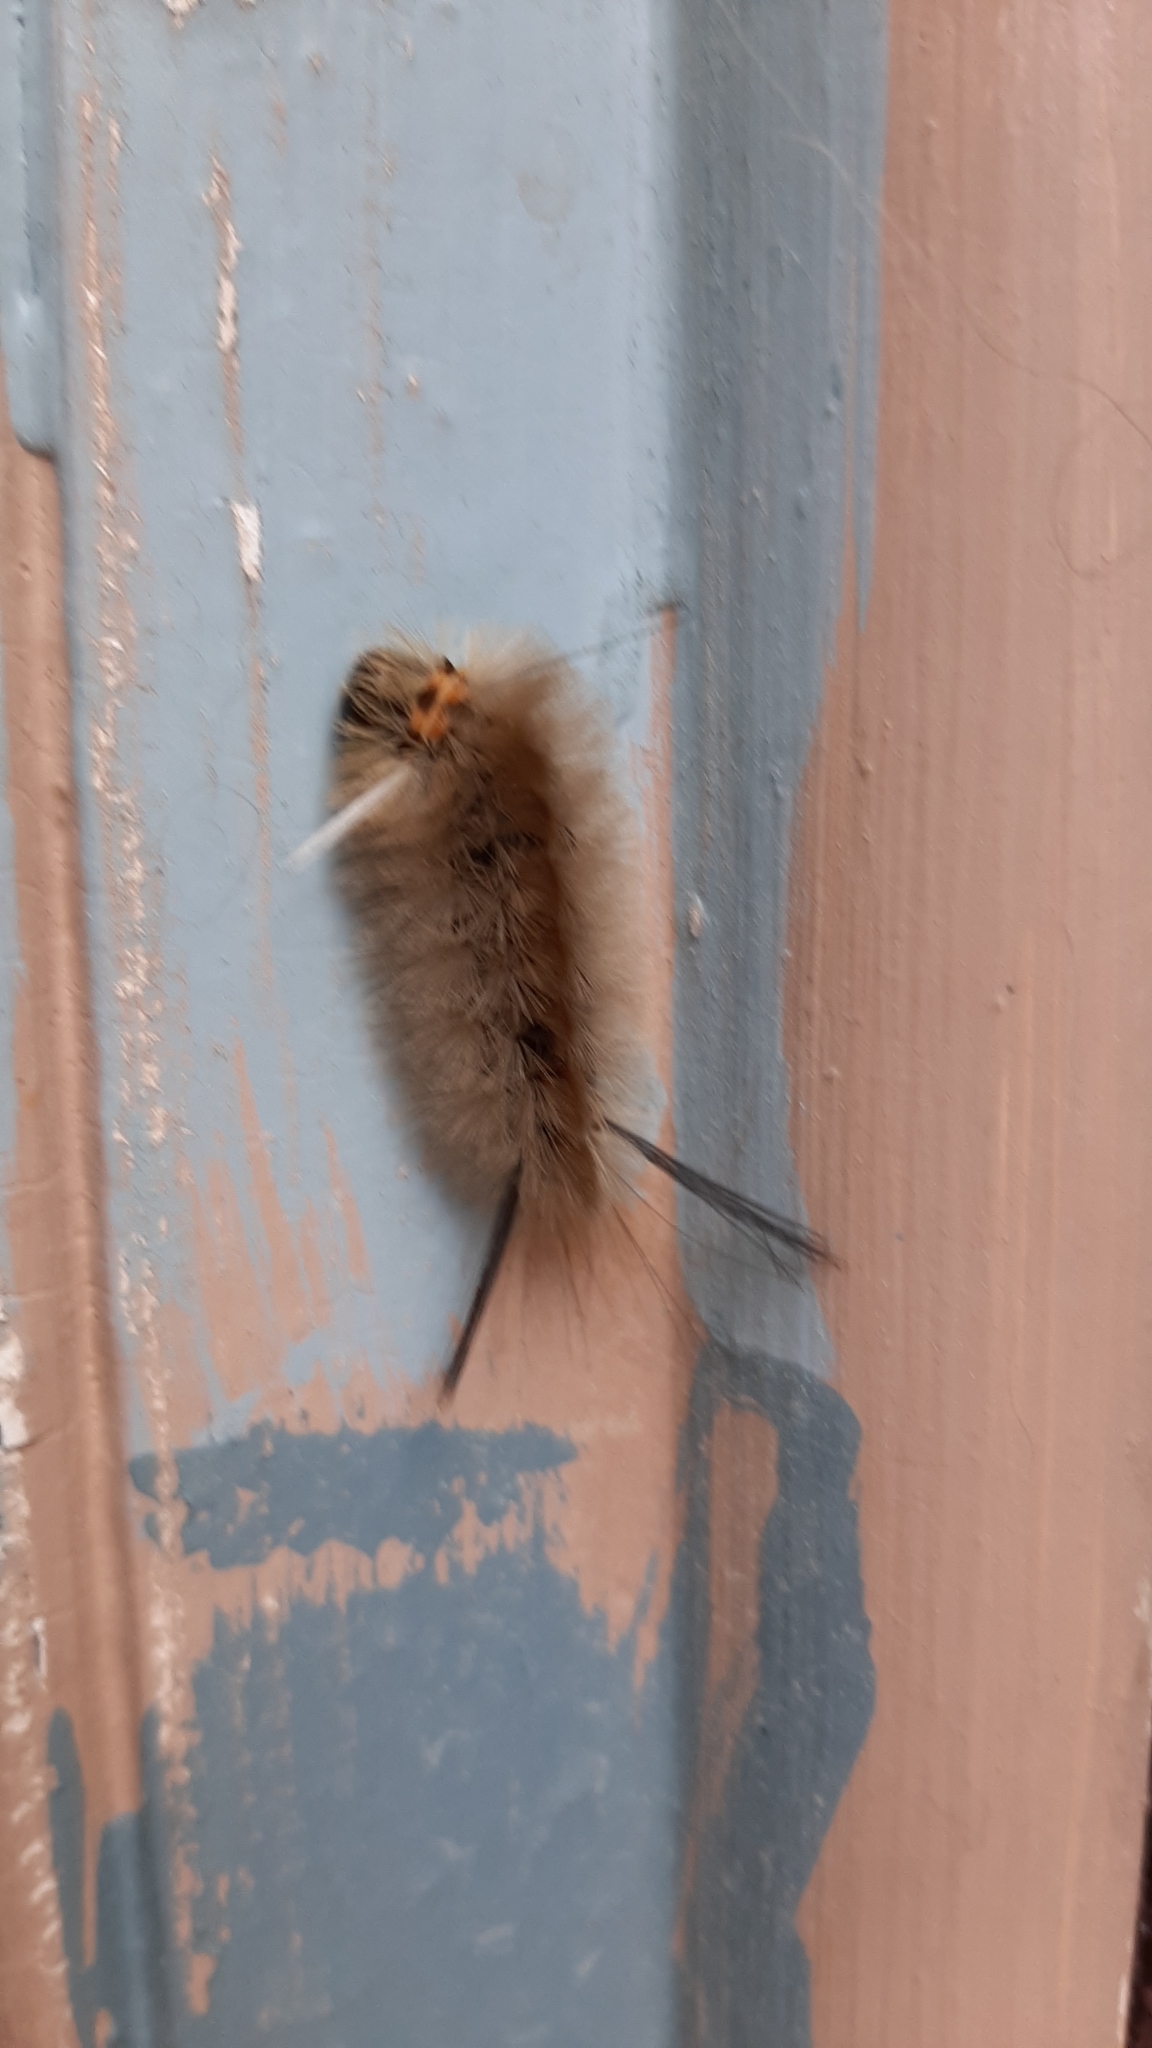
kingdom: Animalia
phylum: Arthropoda
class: Insecta
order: Lepidoptera
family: Erebidae
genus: Halysidota
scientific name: Halysidota tessellaris
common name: Banded tussock moth
